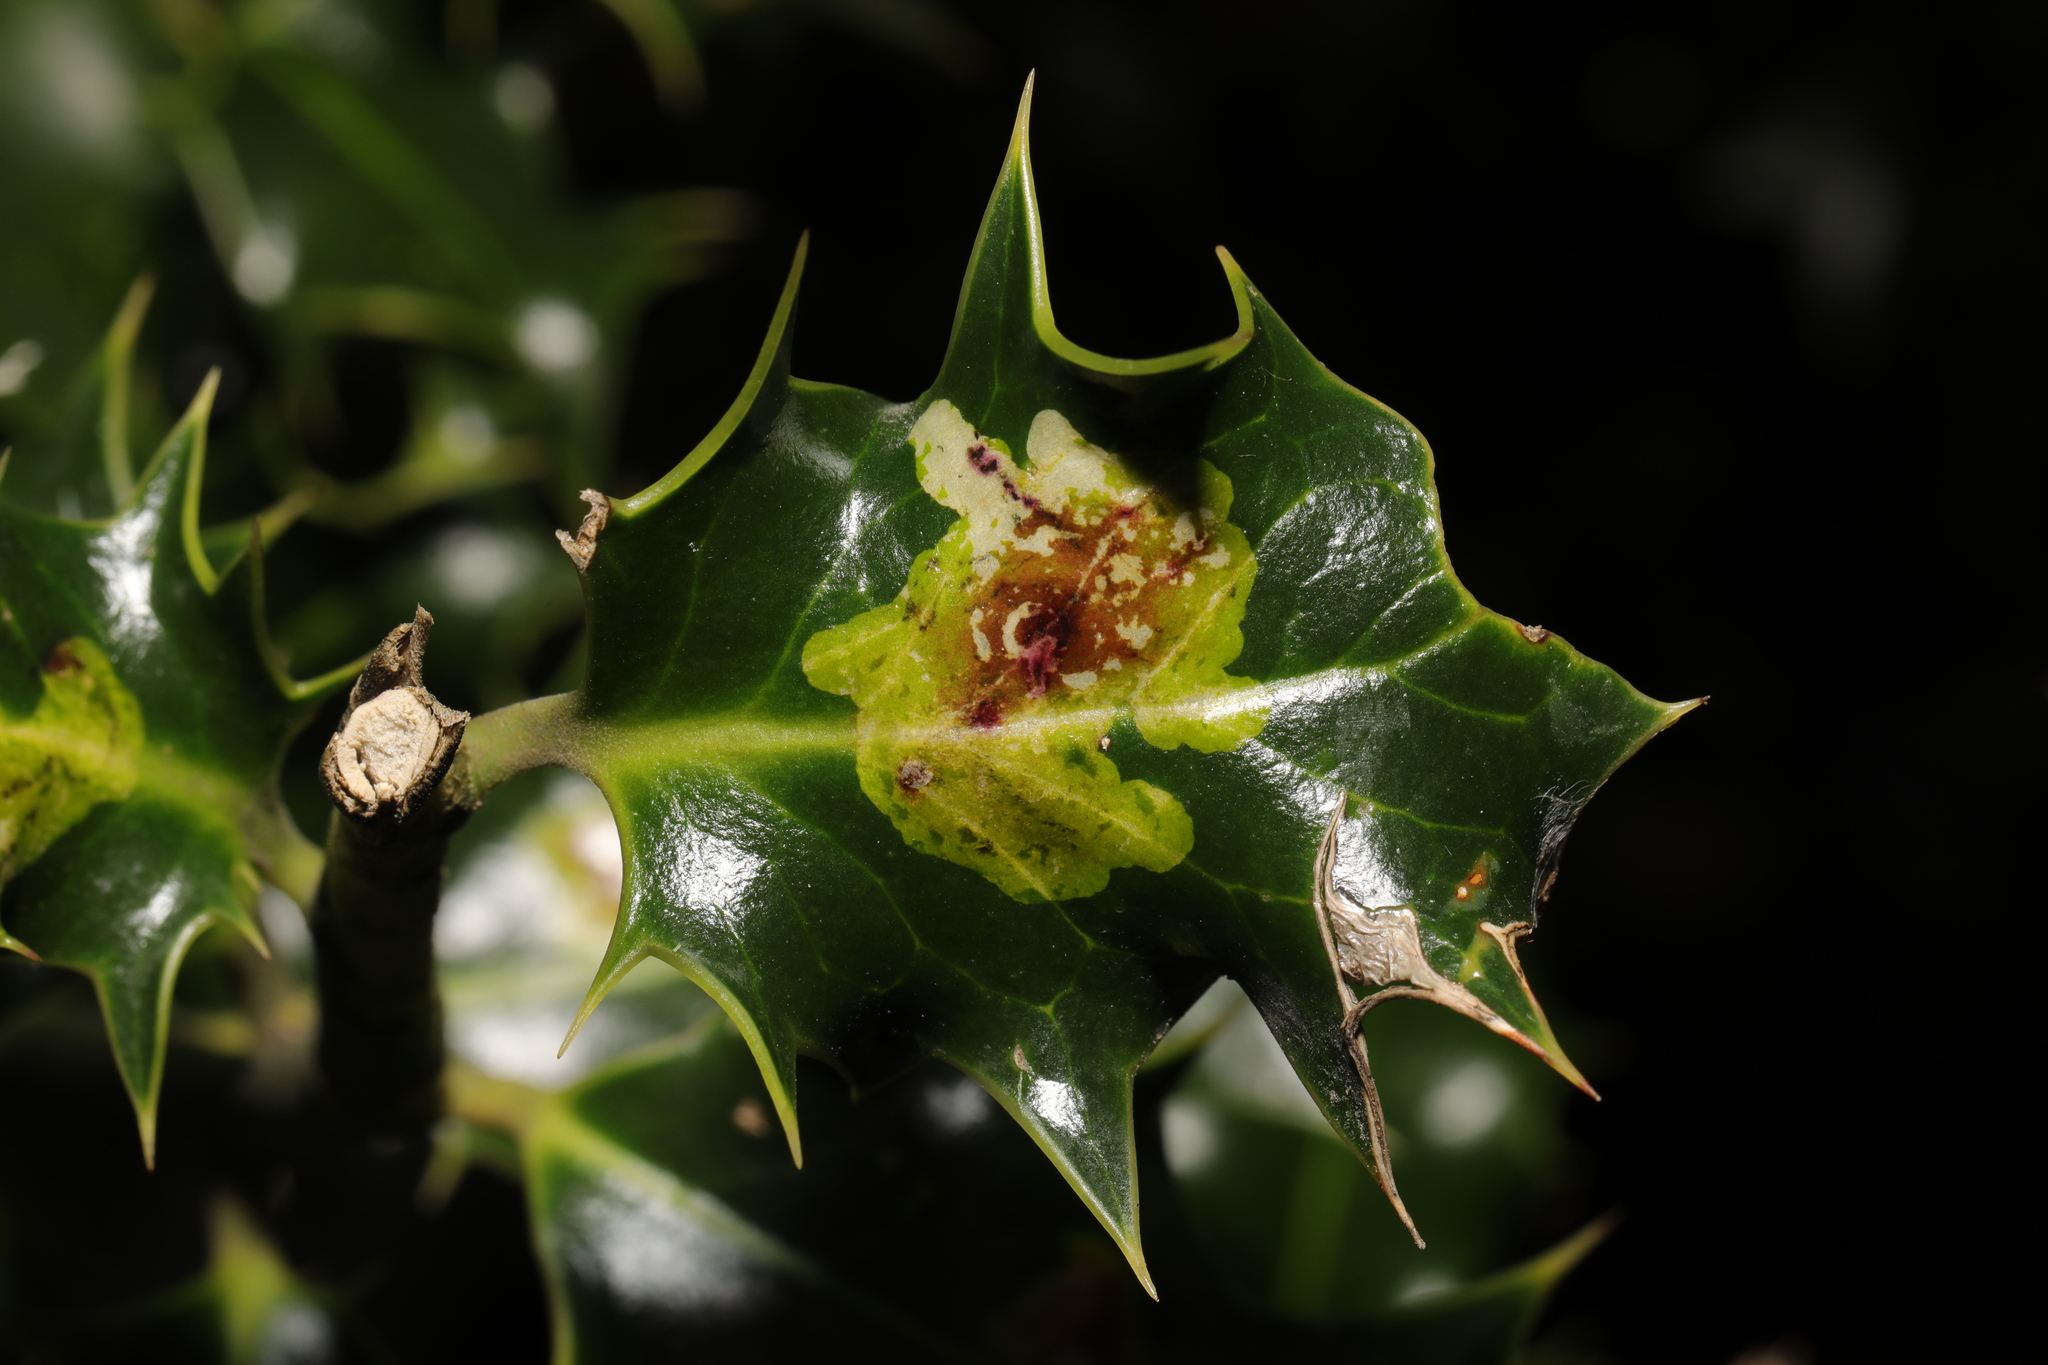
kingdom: Animalia
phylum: Arthropoda
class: Insecta
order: Diptera
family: Agromyzidae
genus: Phytomyza
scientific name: Phytomyza ilicis
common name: Holly leafminer
